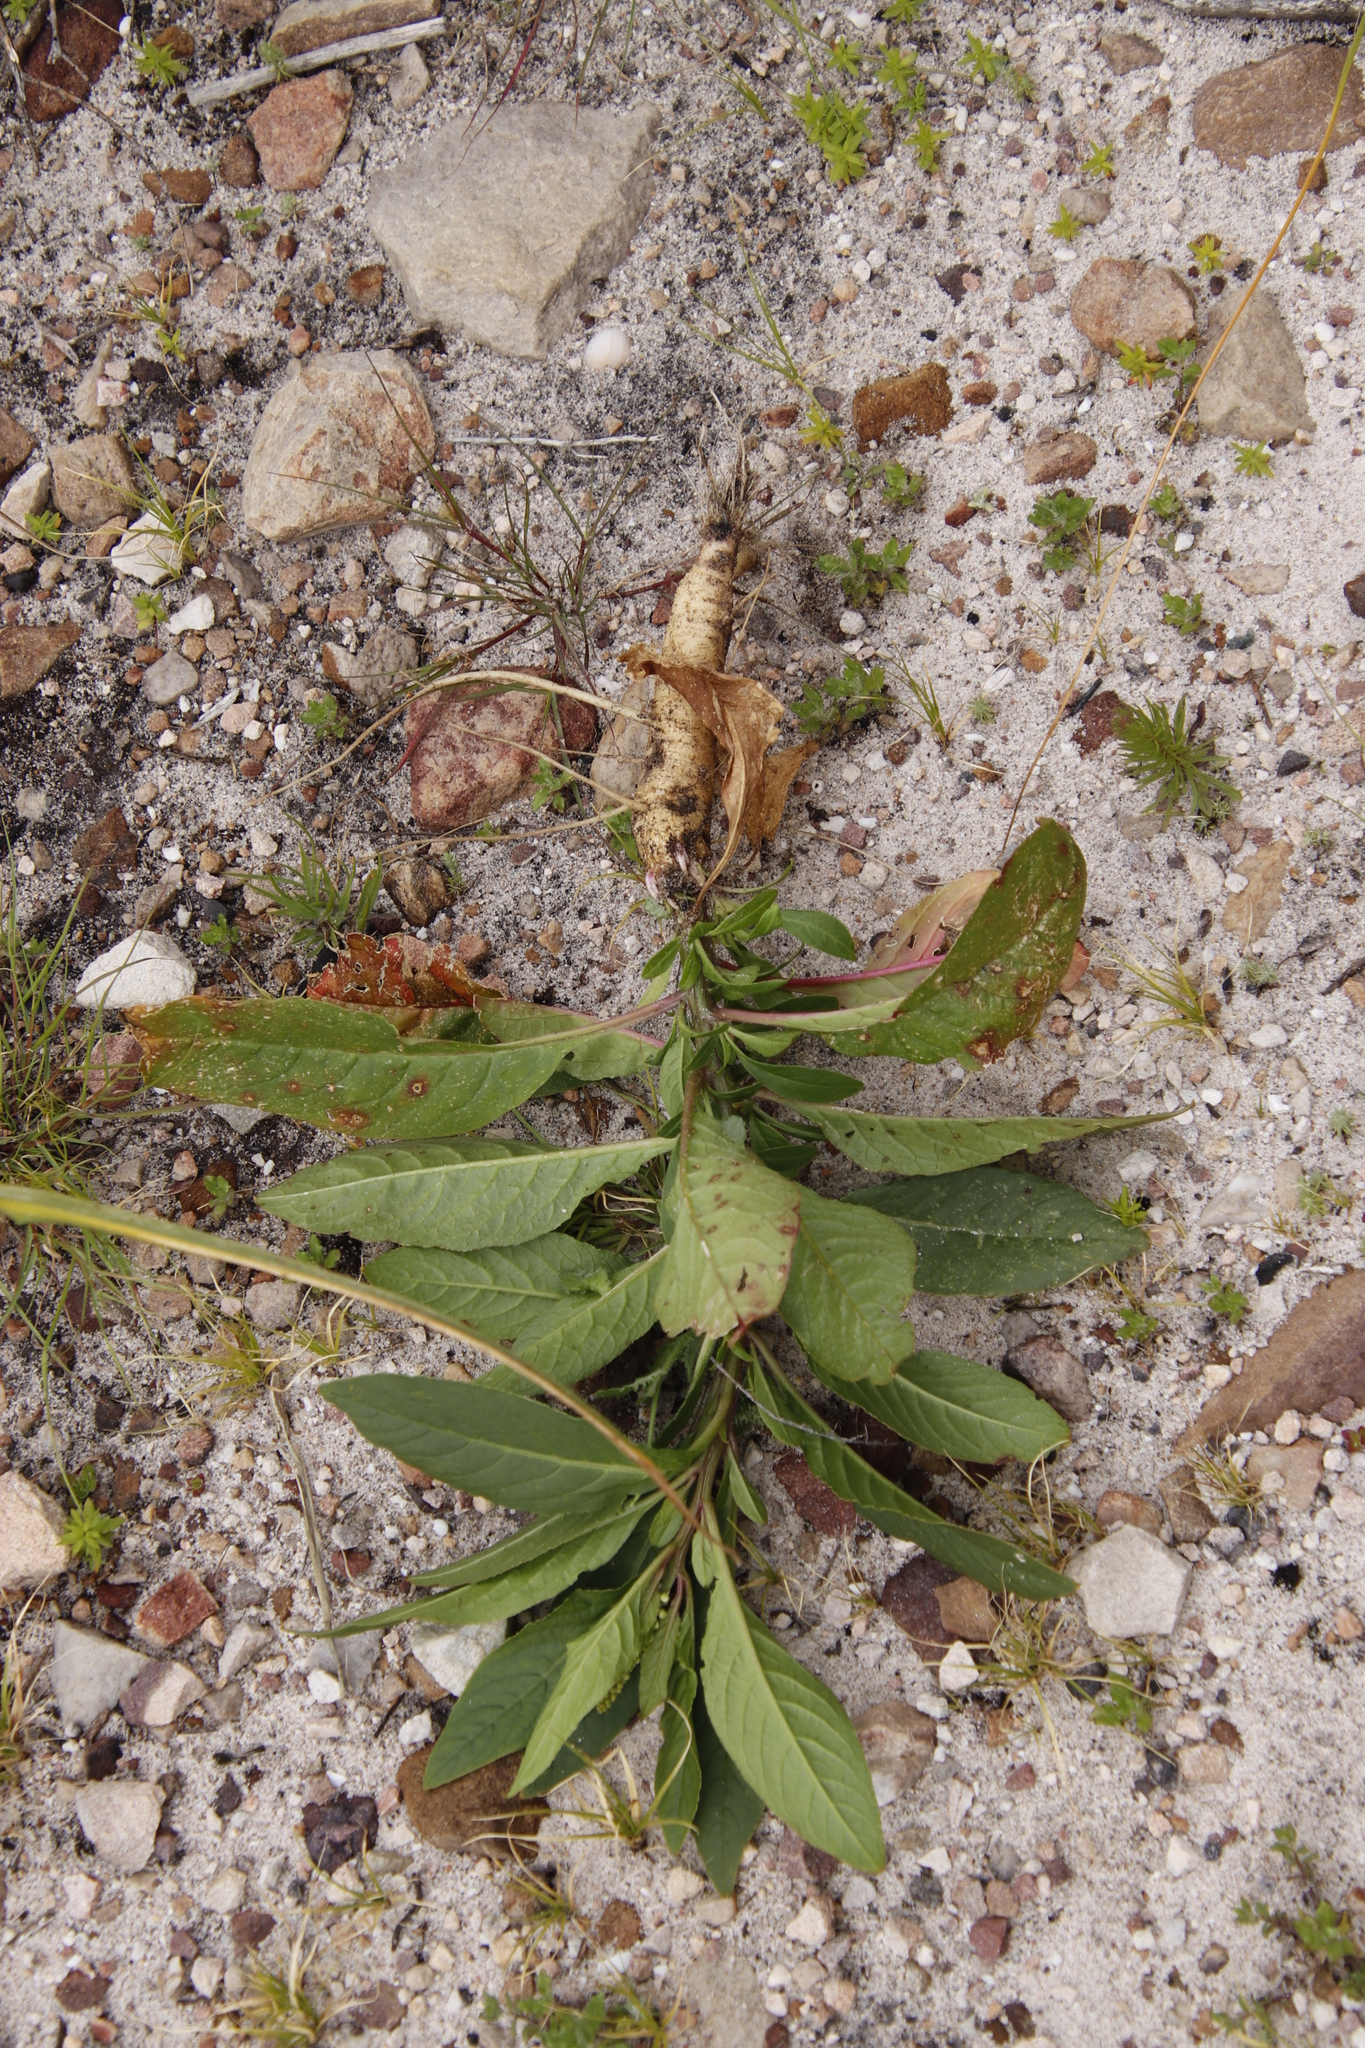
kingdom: Plantae
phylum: Tracheophyta
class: Magnoliopsida
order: Caryophyllales
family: Phytolaccaceae
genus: Phytolacca
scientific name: Phytolacca icosandra
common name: Button pokeweed
